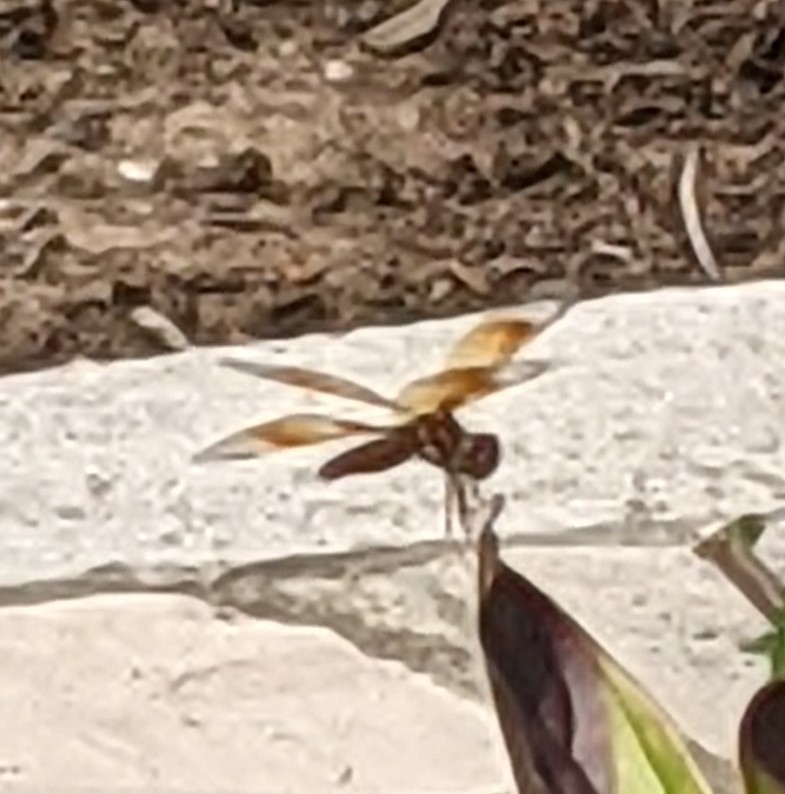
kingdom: Animalia
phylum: Arthropoda
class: Insecta
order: Odonata
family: Libellulidae
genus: Perithemis
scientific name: Perithemis tenera
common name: Eastern amberwing
